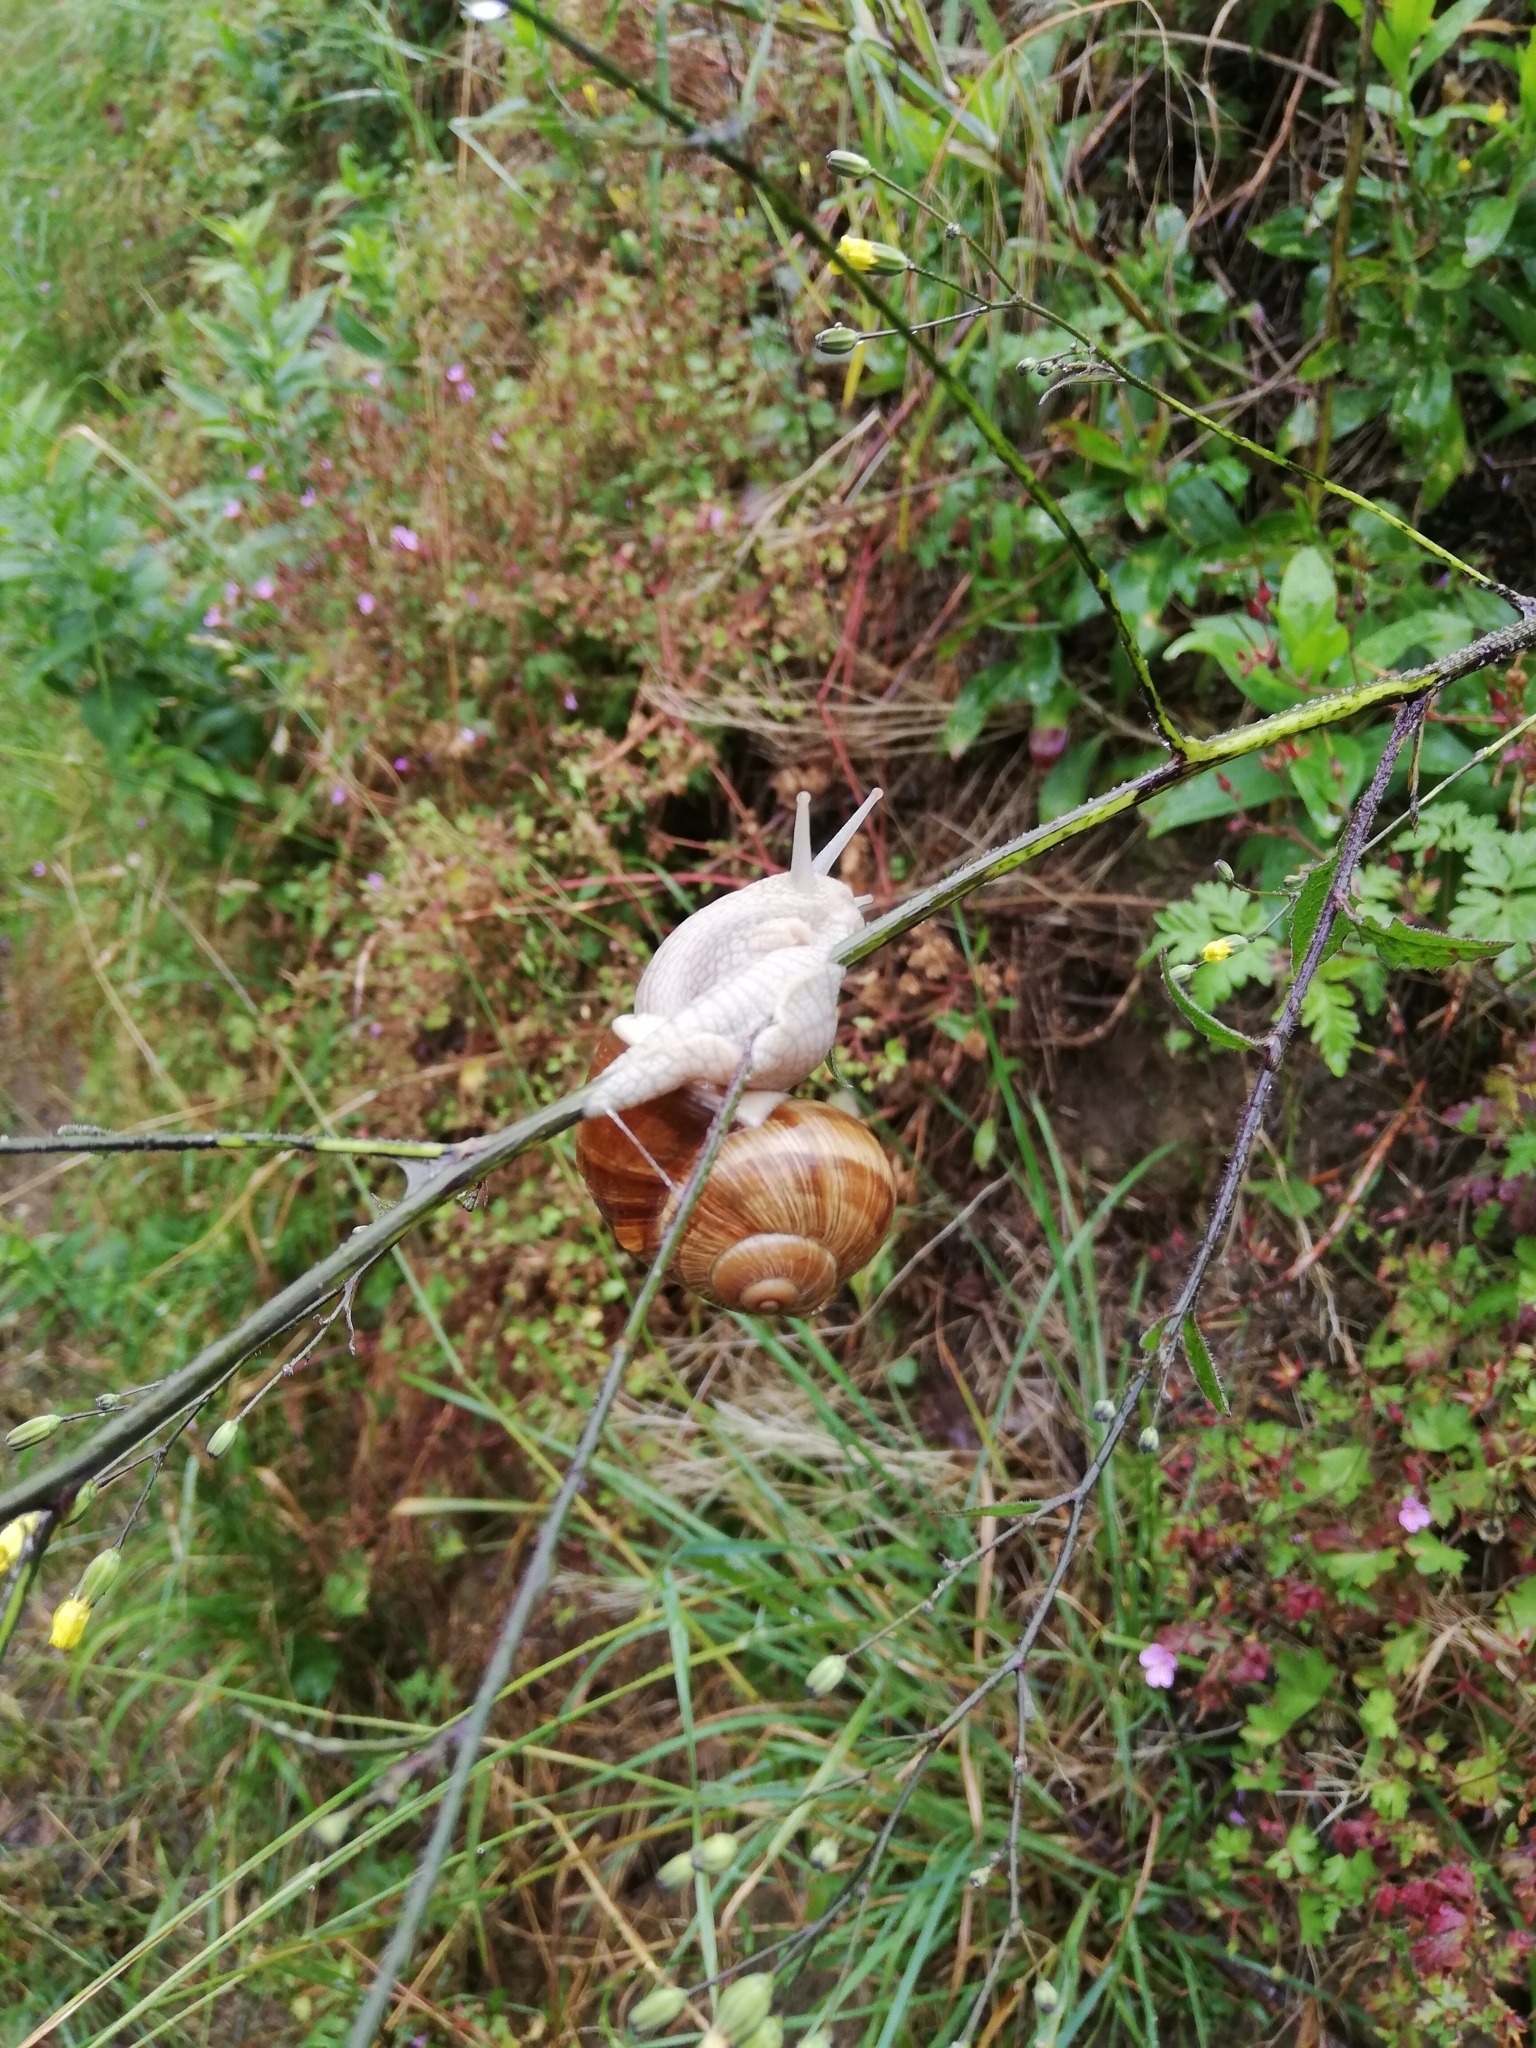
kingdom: Animalia
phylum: Mollusca
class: Gastropoda
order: Stylommatophora
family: Helicidae
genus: Helix
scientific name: Helix pomatia
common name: Roman snail
